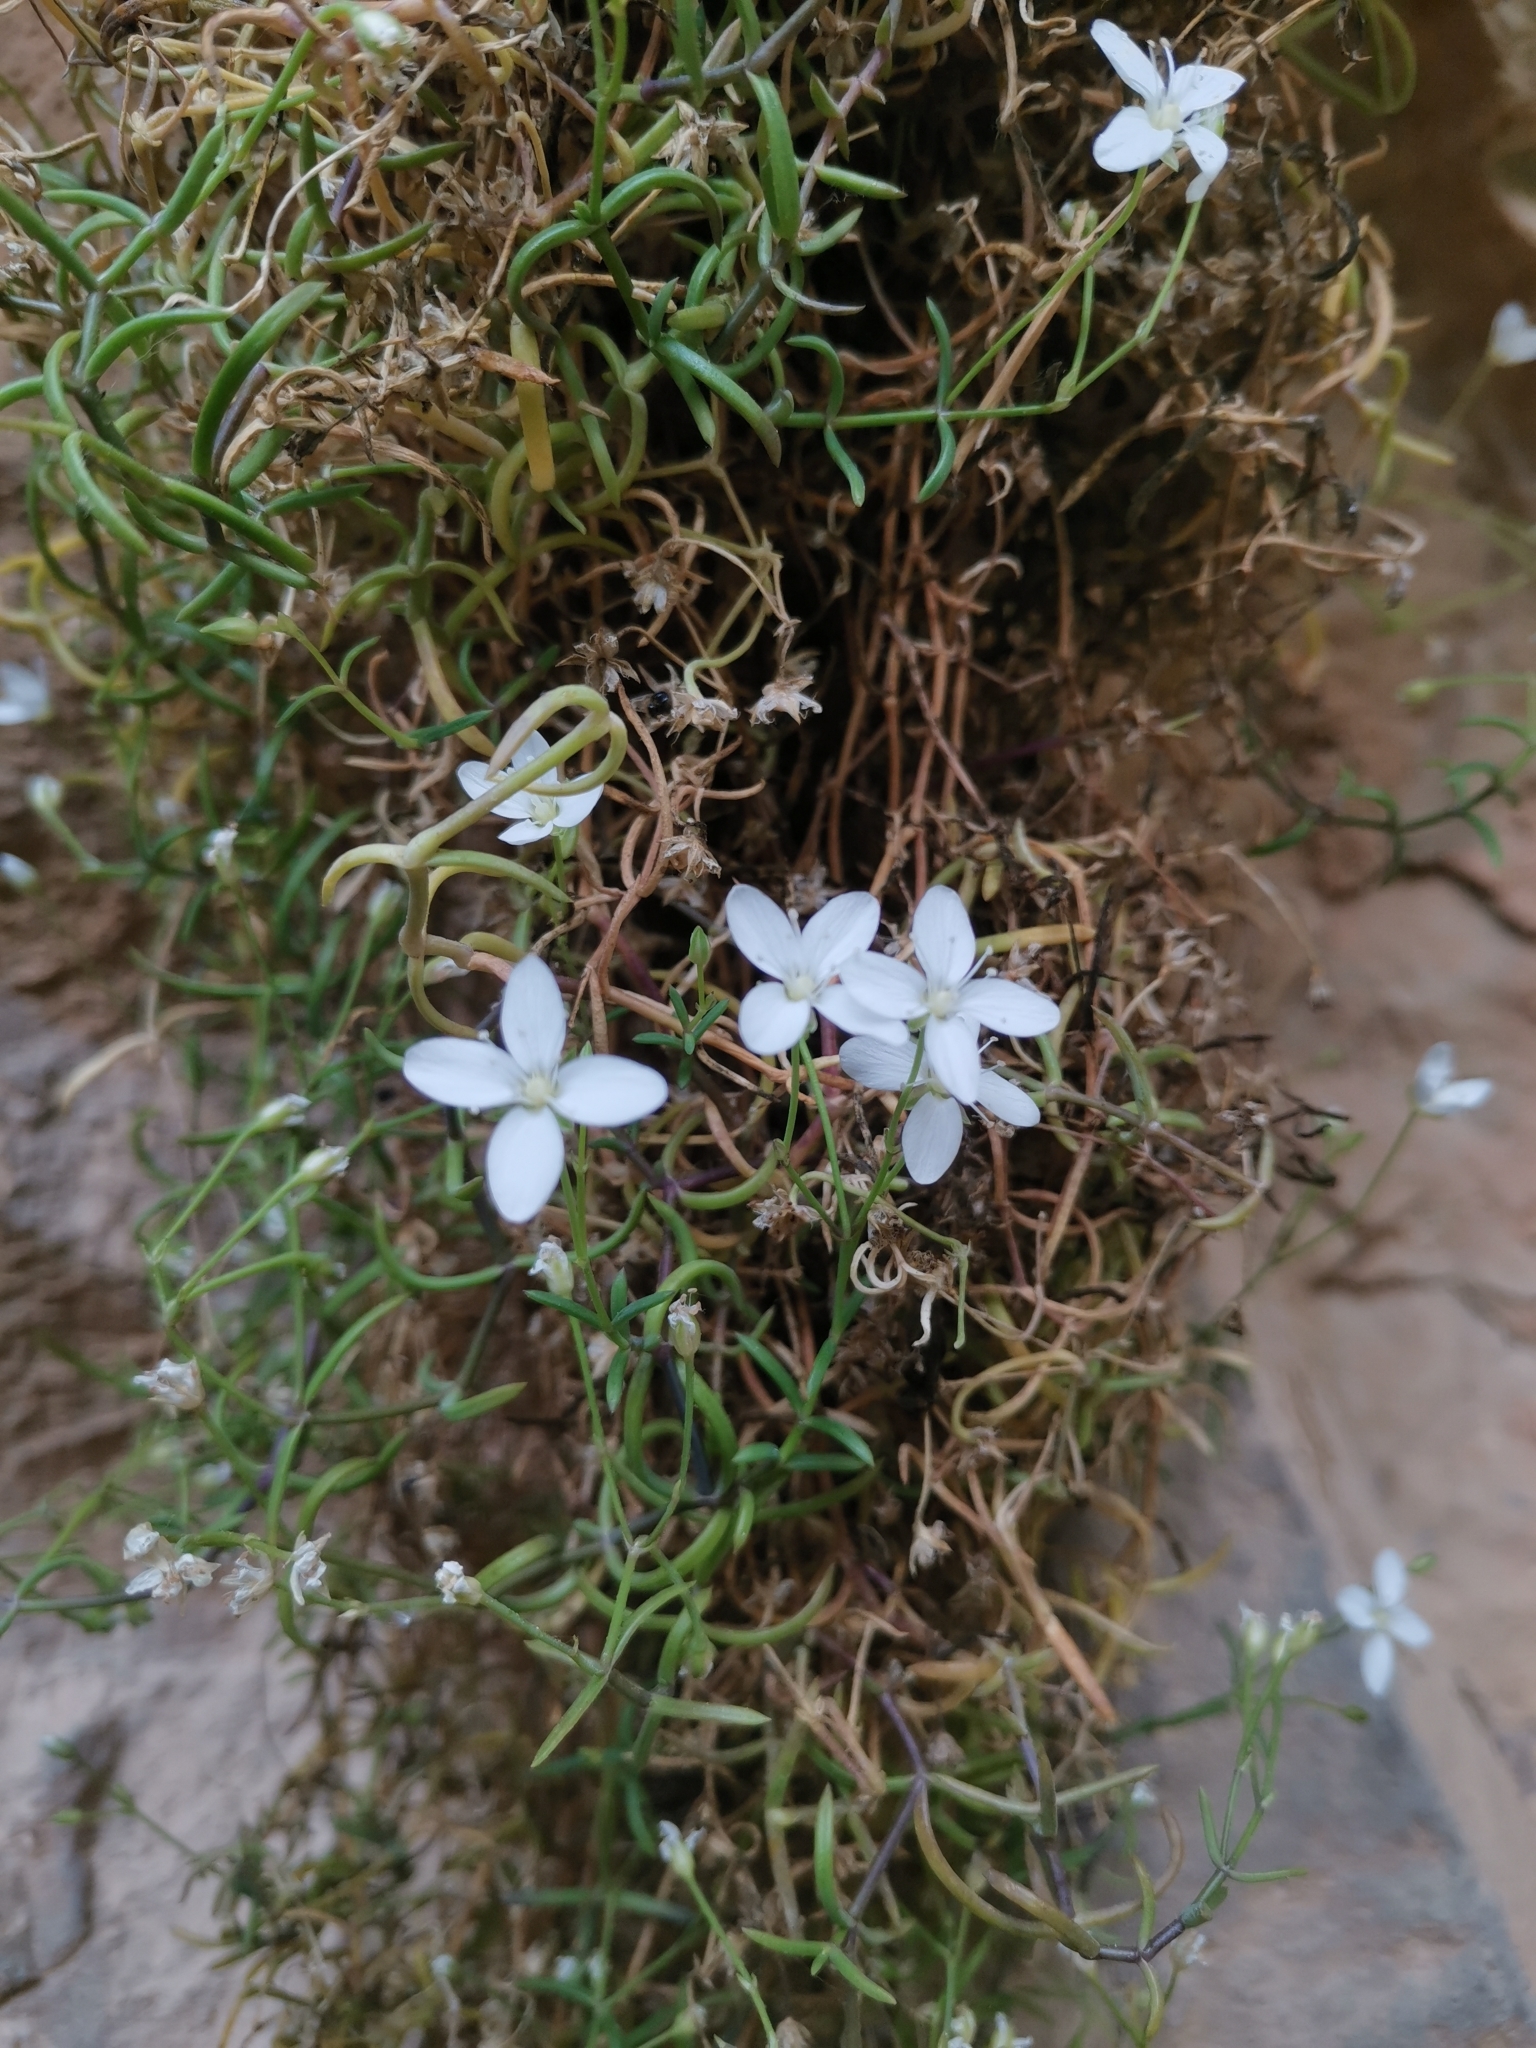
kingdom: Plantae
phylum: Tracheophyta
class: Magnoliopsida
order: Caryophyllales
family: Caryophyllaceae
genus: Moehringia
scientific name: Moehringia tommasinii
